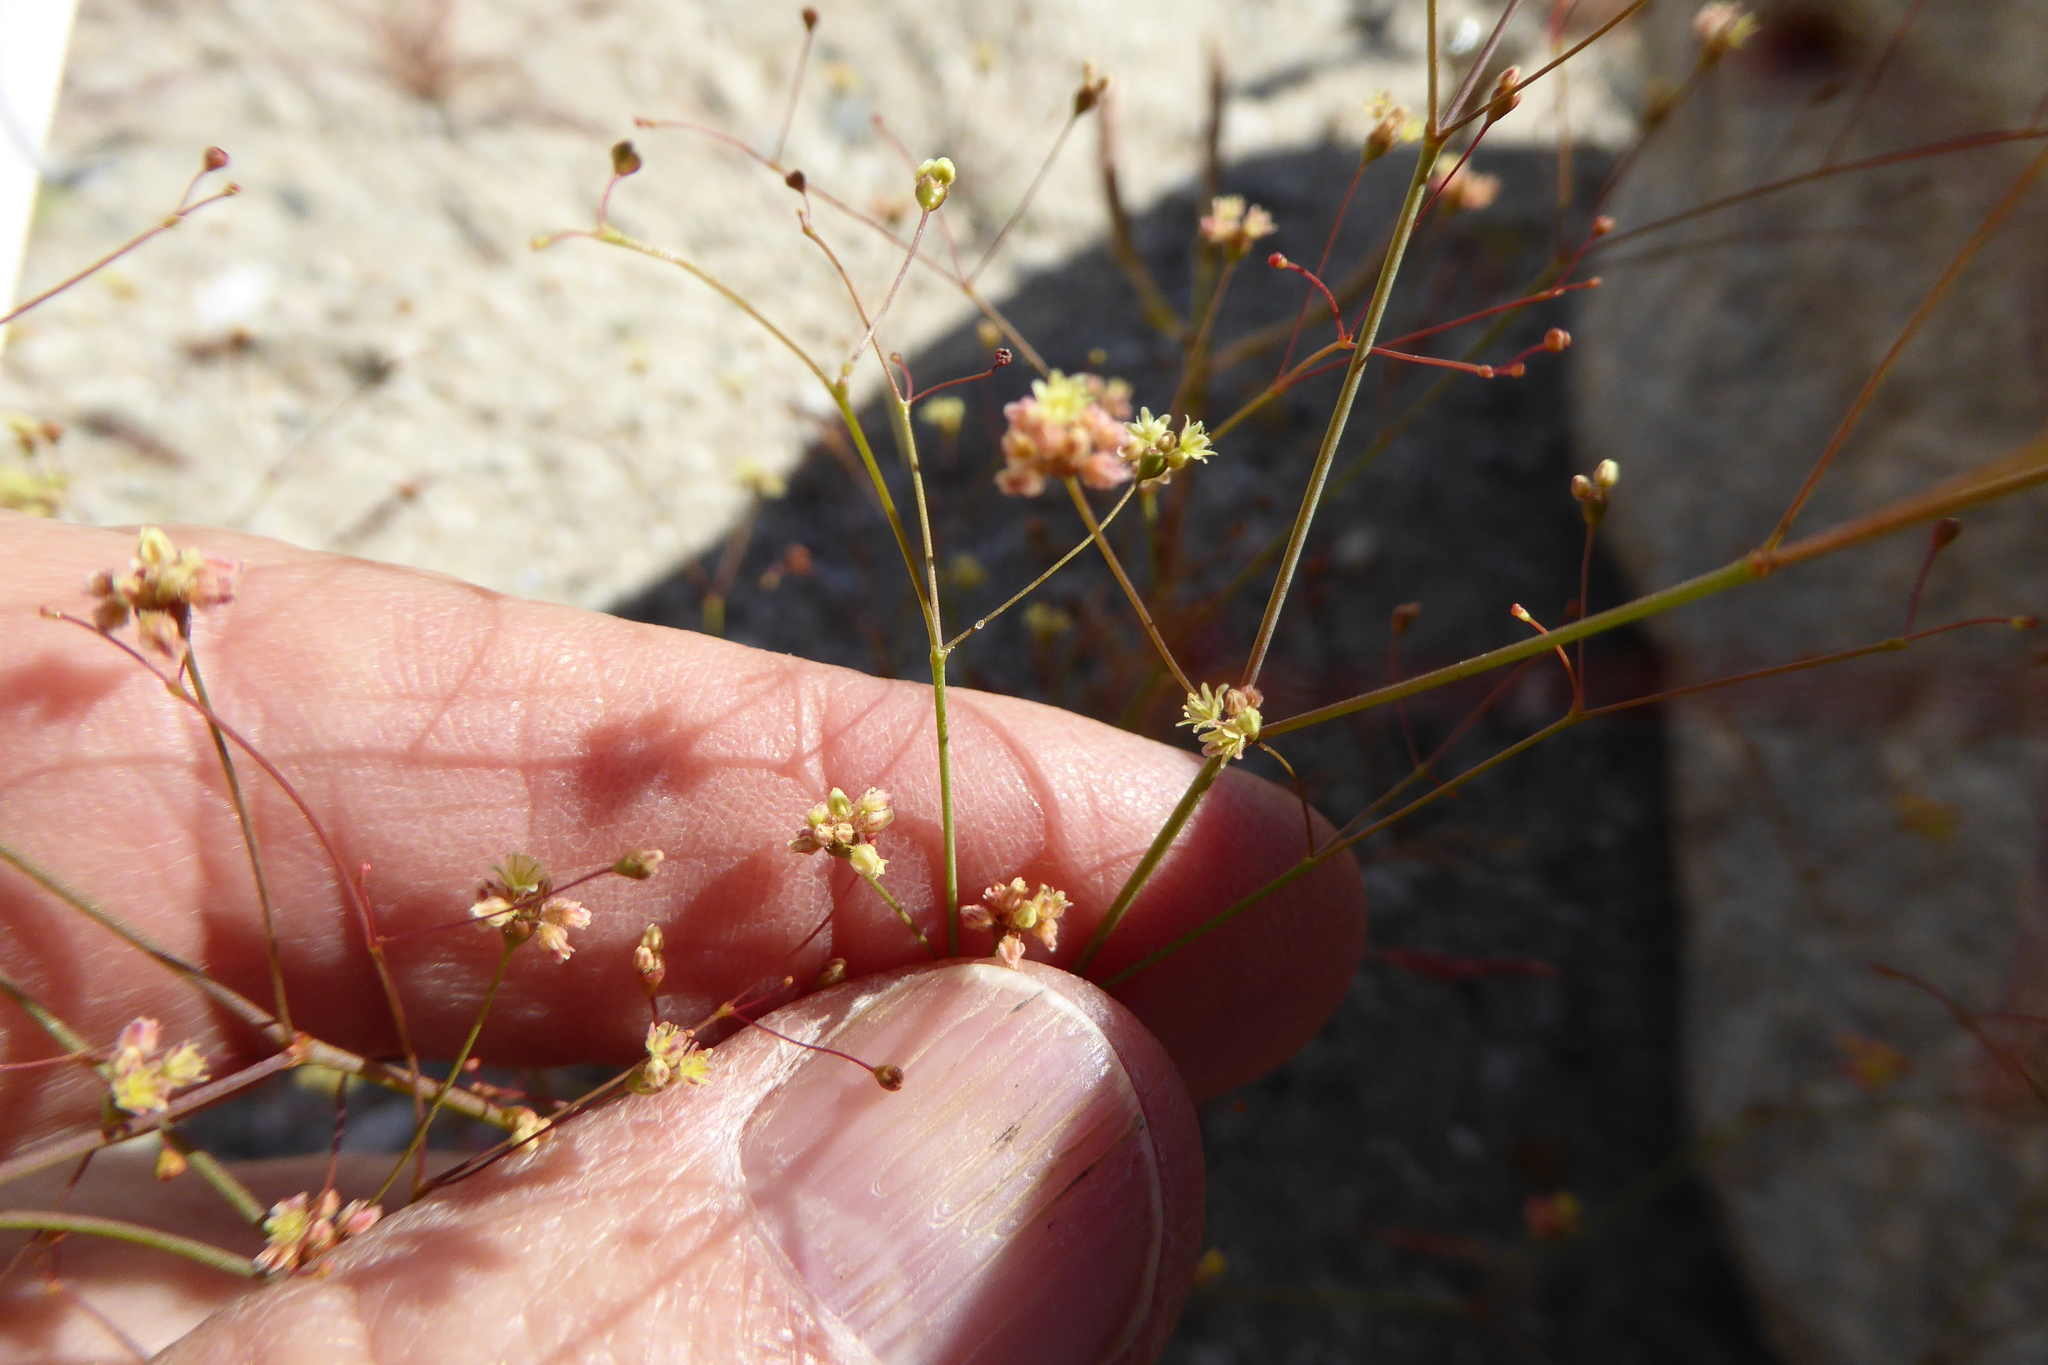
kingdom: Plantae
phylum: Tracheophyta
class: Magnoliopsida
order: Caryophyllales
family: Polygonaceae
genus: Eriogonum
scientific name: Eriogonum thomasii
